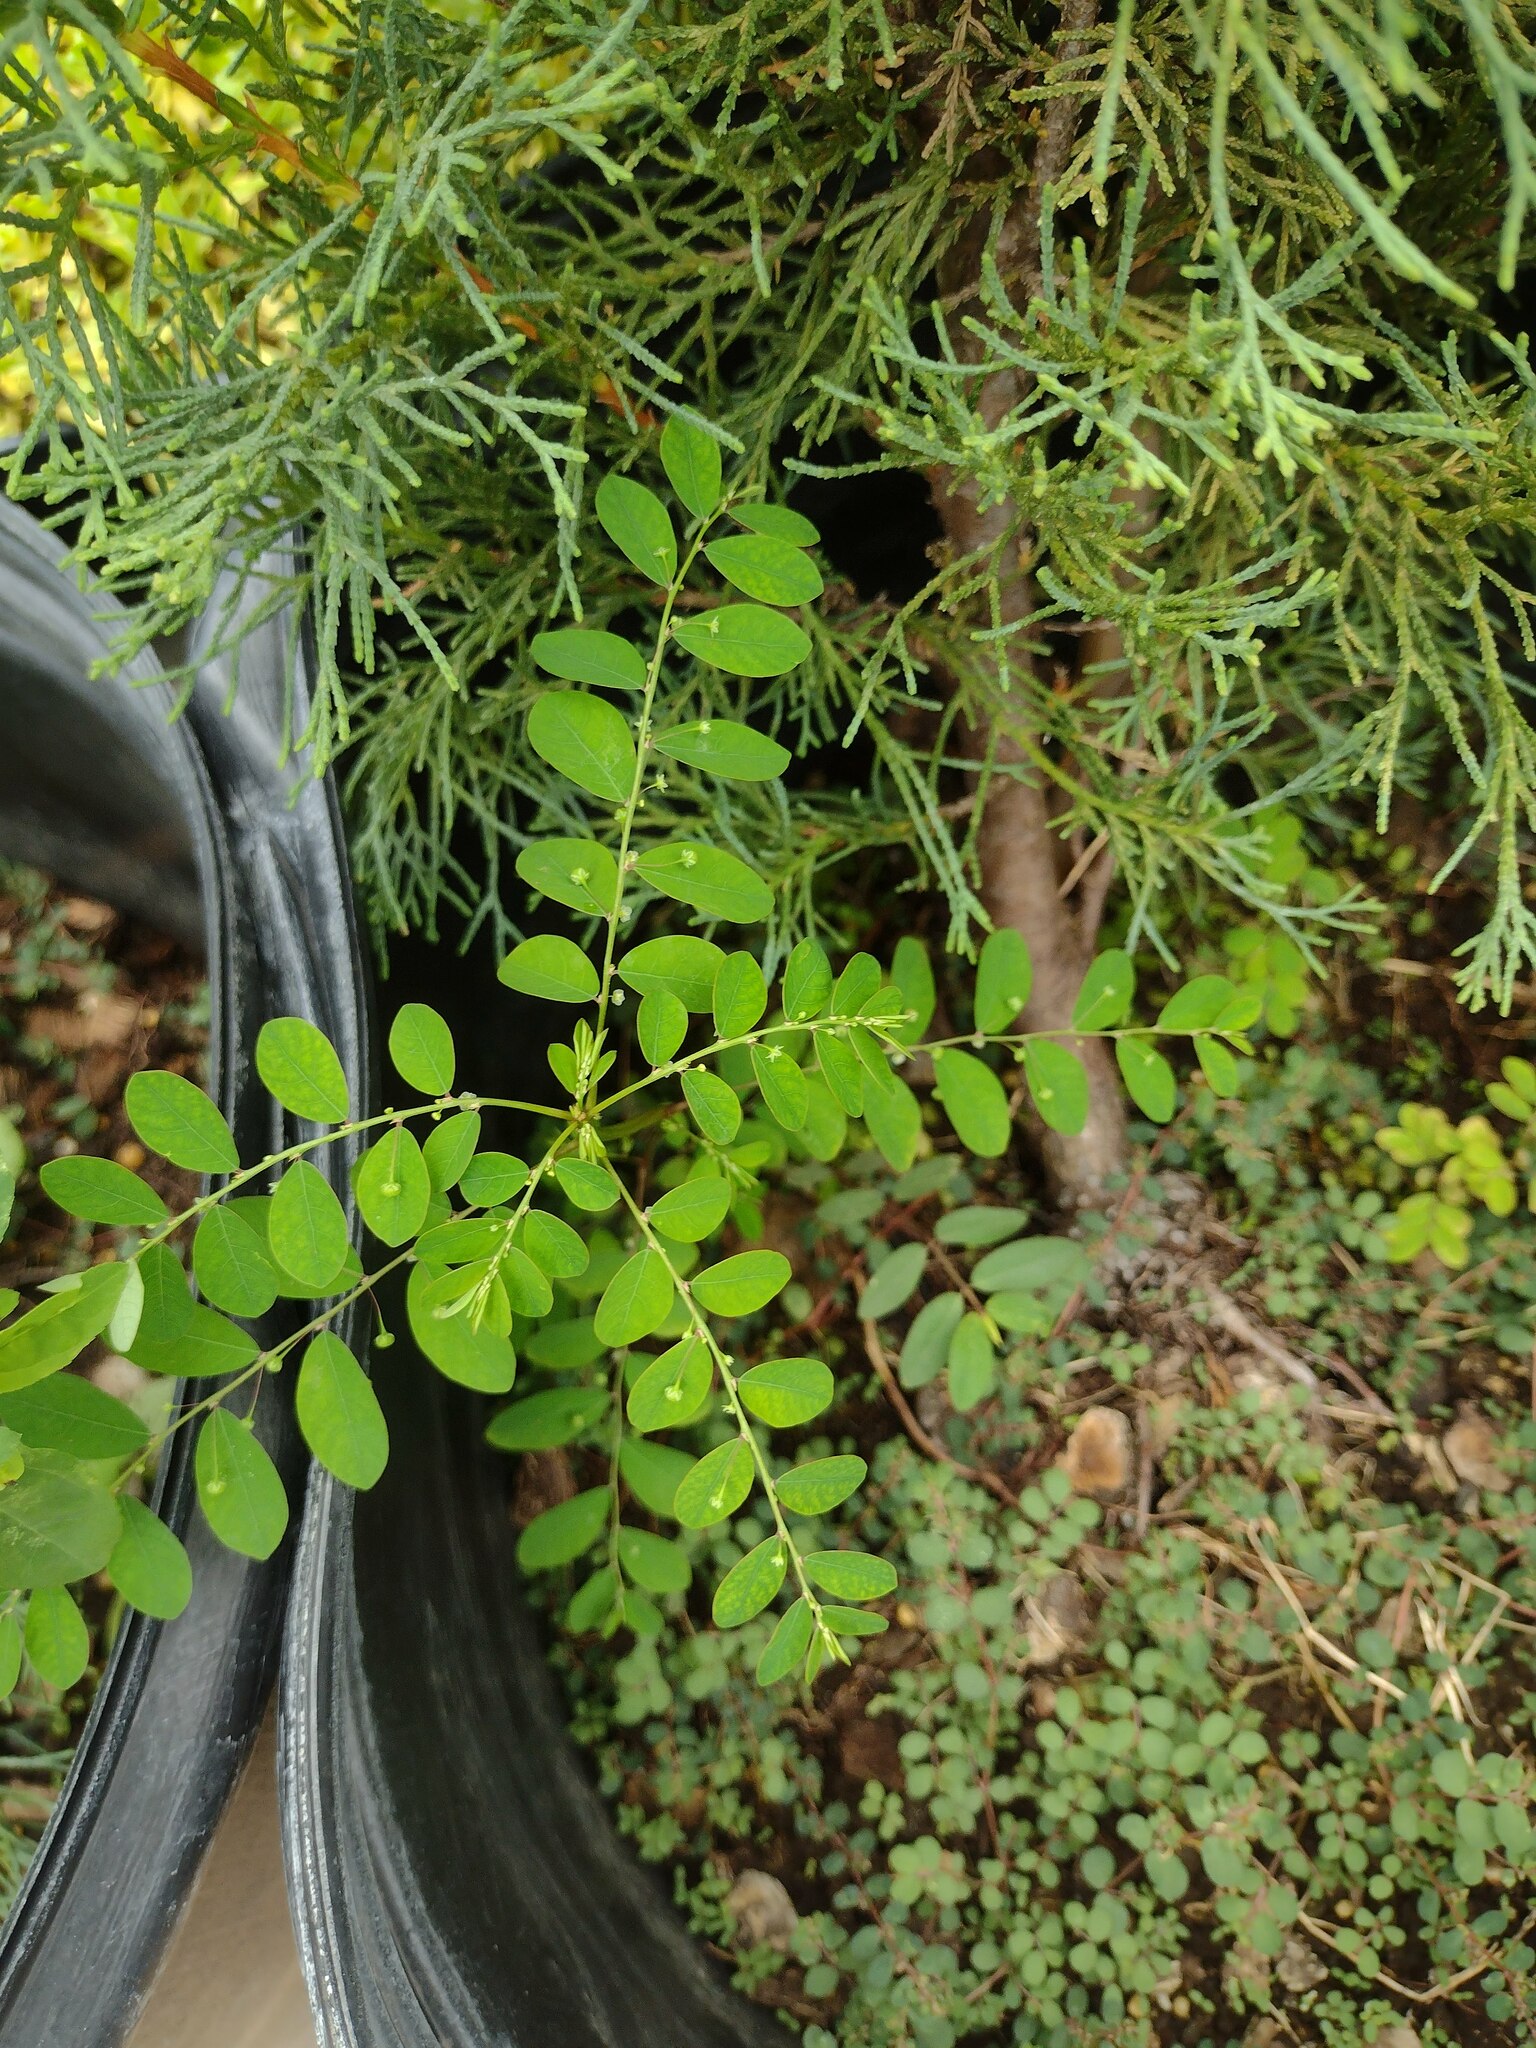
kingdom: Plantae
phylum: Tracheophyta
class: Magnoliopsida
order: Malpighiales
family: Phyllanthaceae
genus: Phyllanthus
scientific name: Phyllanthus tenellus
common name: Mascarene island leaf-flower
